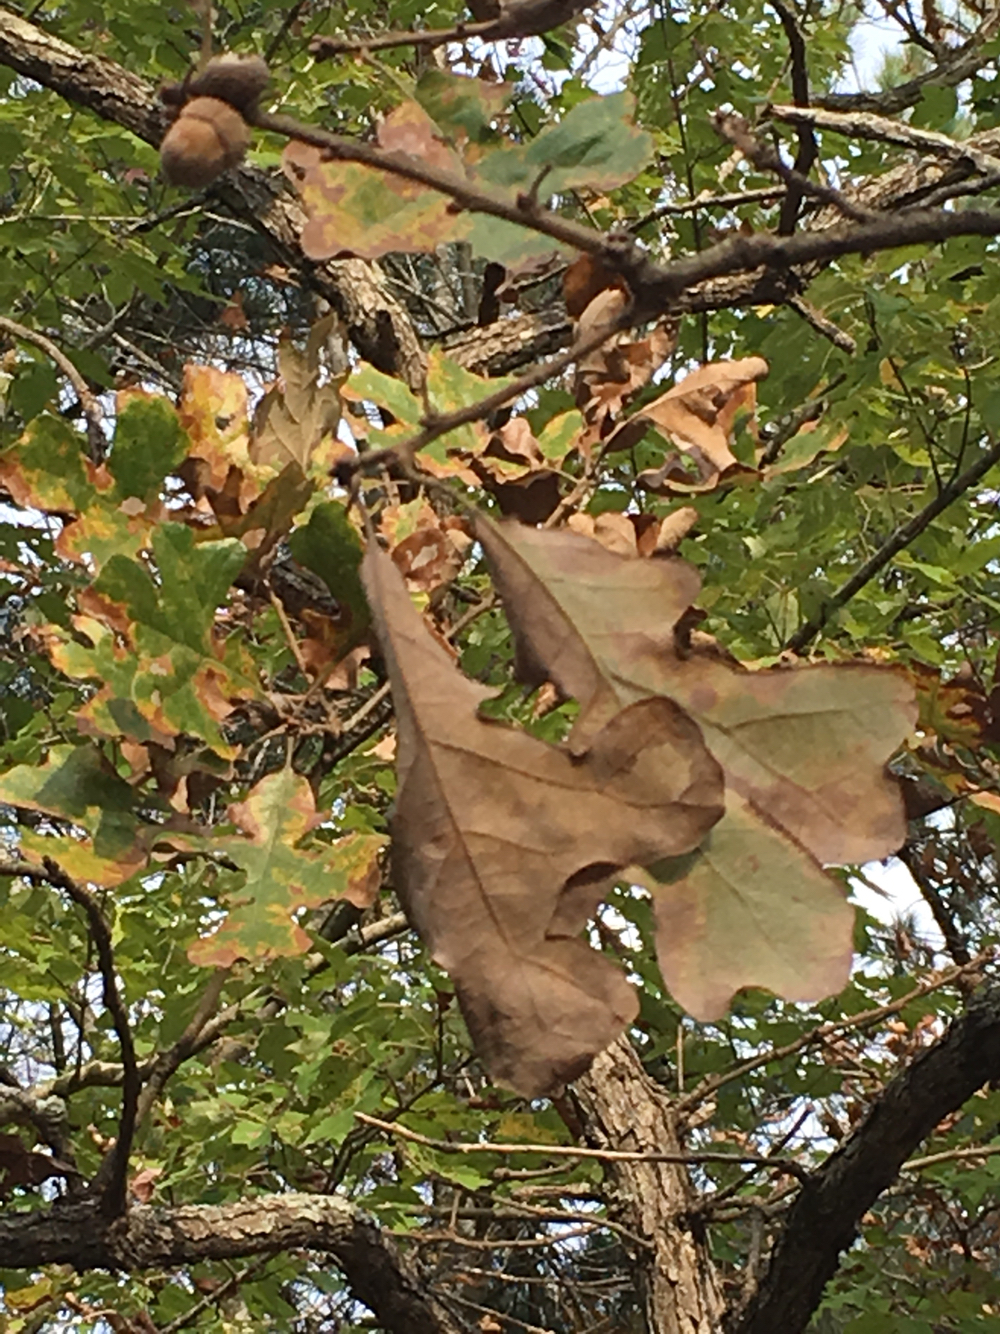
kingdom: Plantae
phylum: Tracheophyta
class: Magnoliopsida
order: Fagales
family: Fagaceae
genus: Quercus
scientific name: Quercus stellata
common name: Post oak
